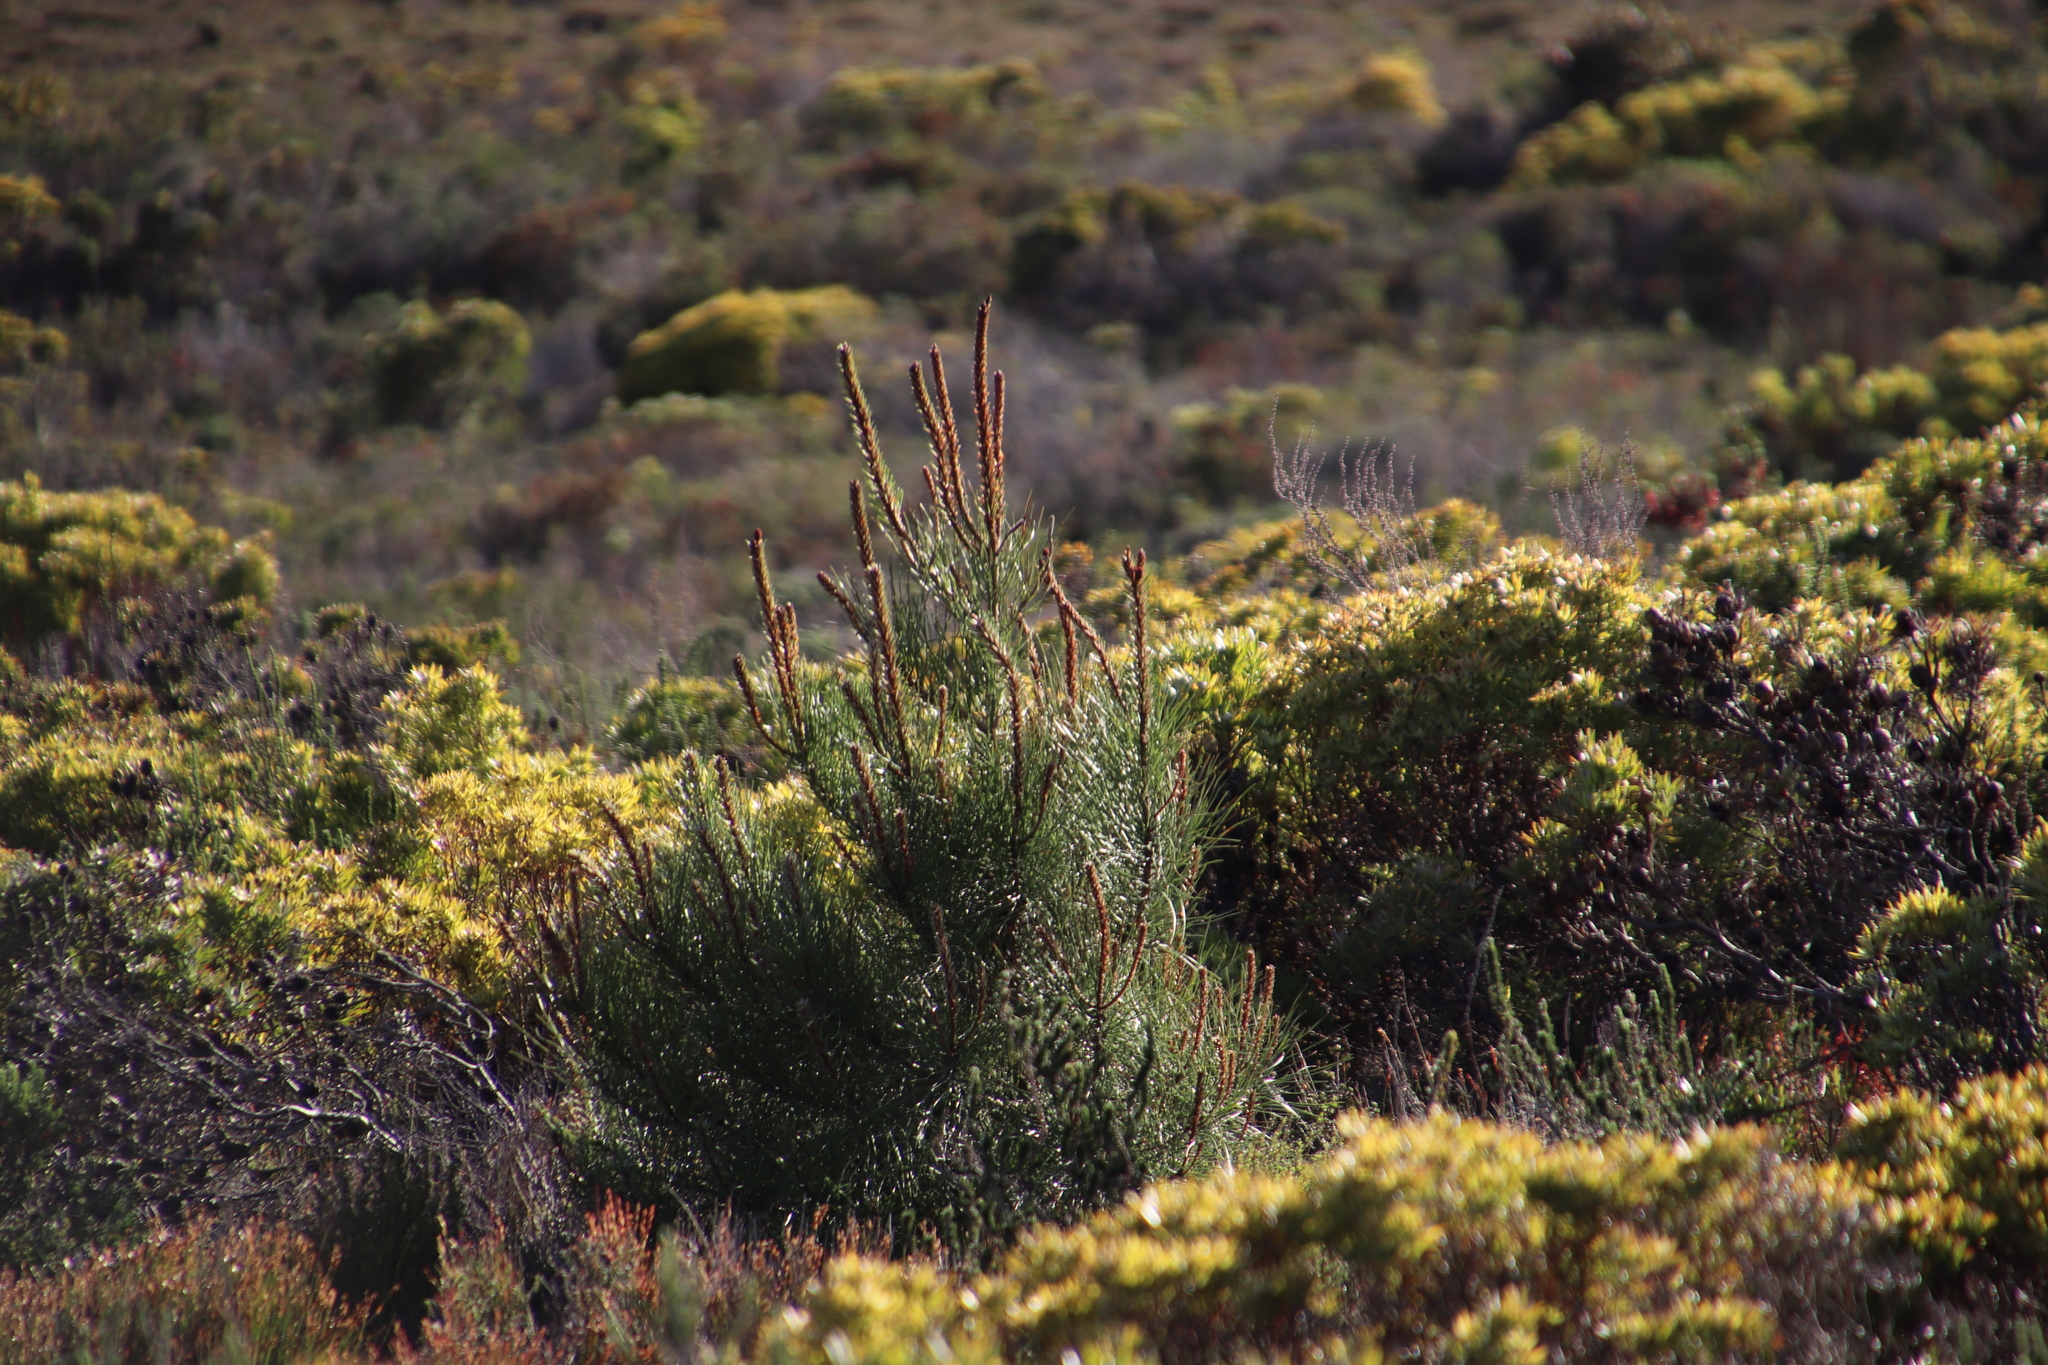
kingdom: Plantae
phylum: Tracheophyta
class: Pinopsida
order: Pinales
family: Pinaceae
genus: Pinus
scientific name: Pinus pinaster
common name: Maritime pine
